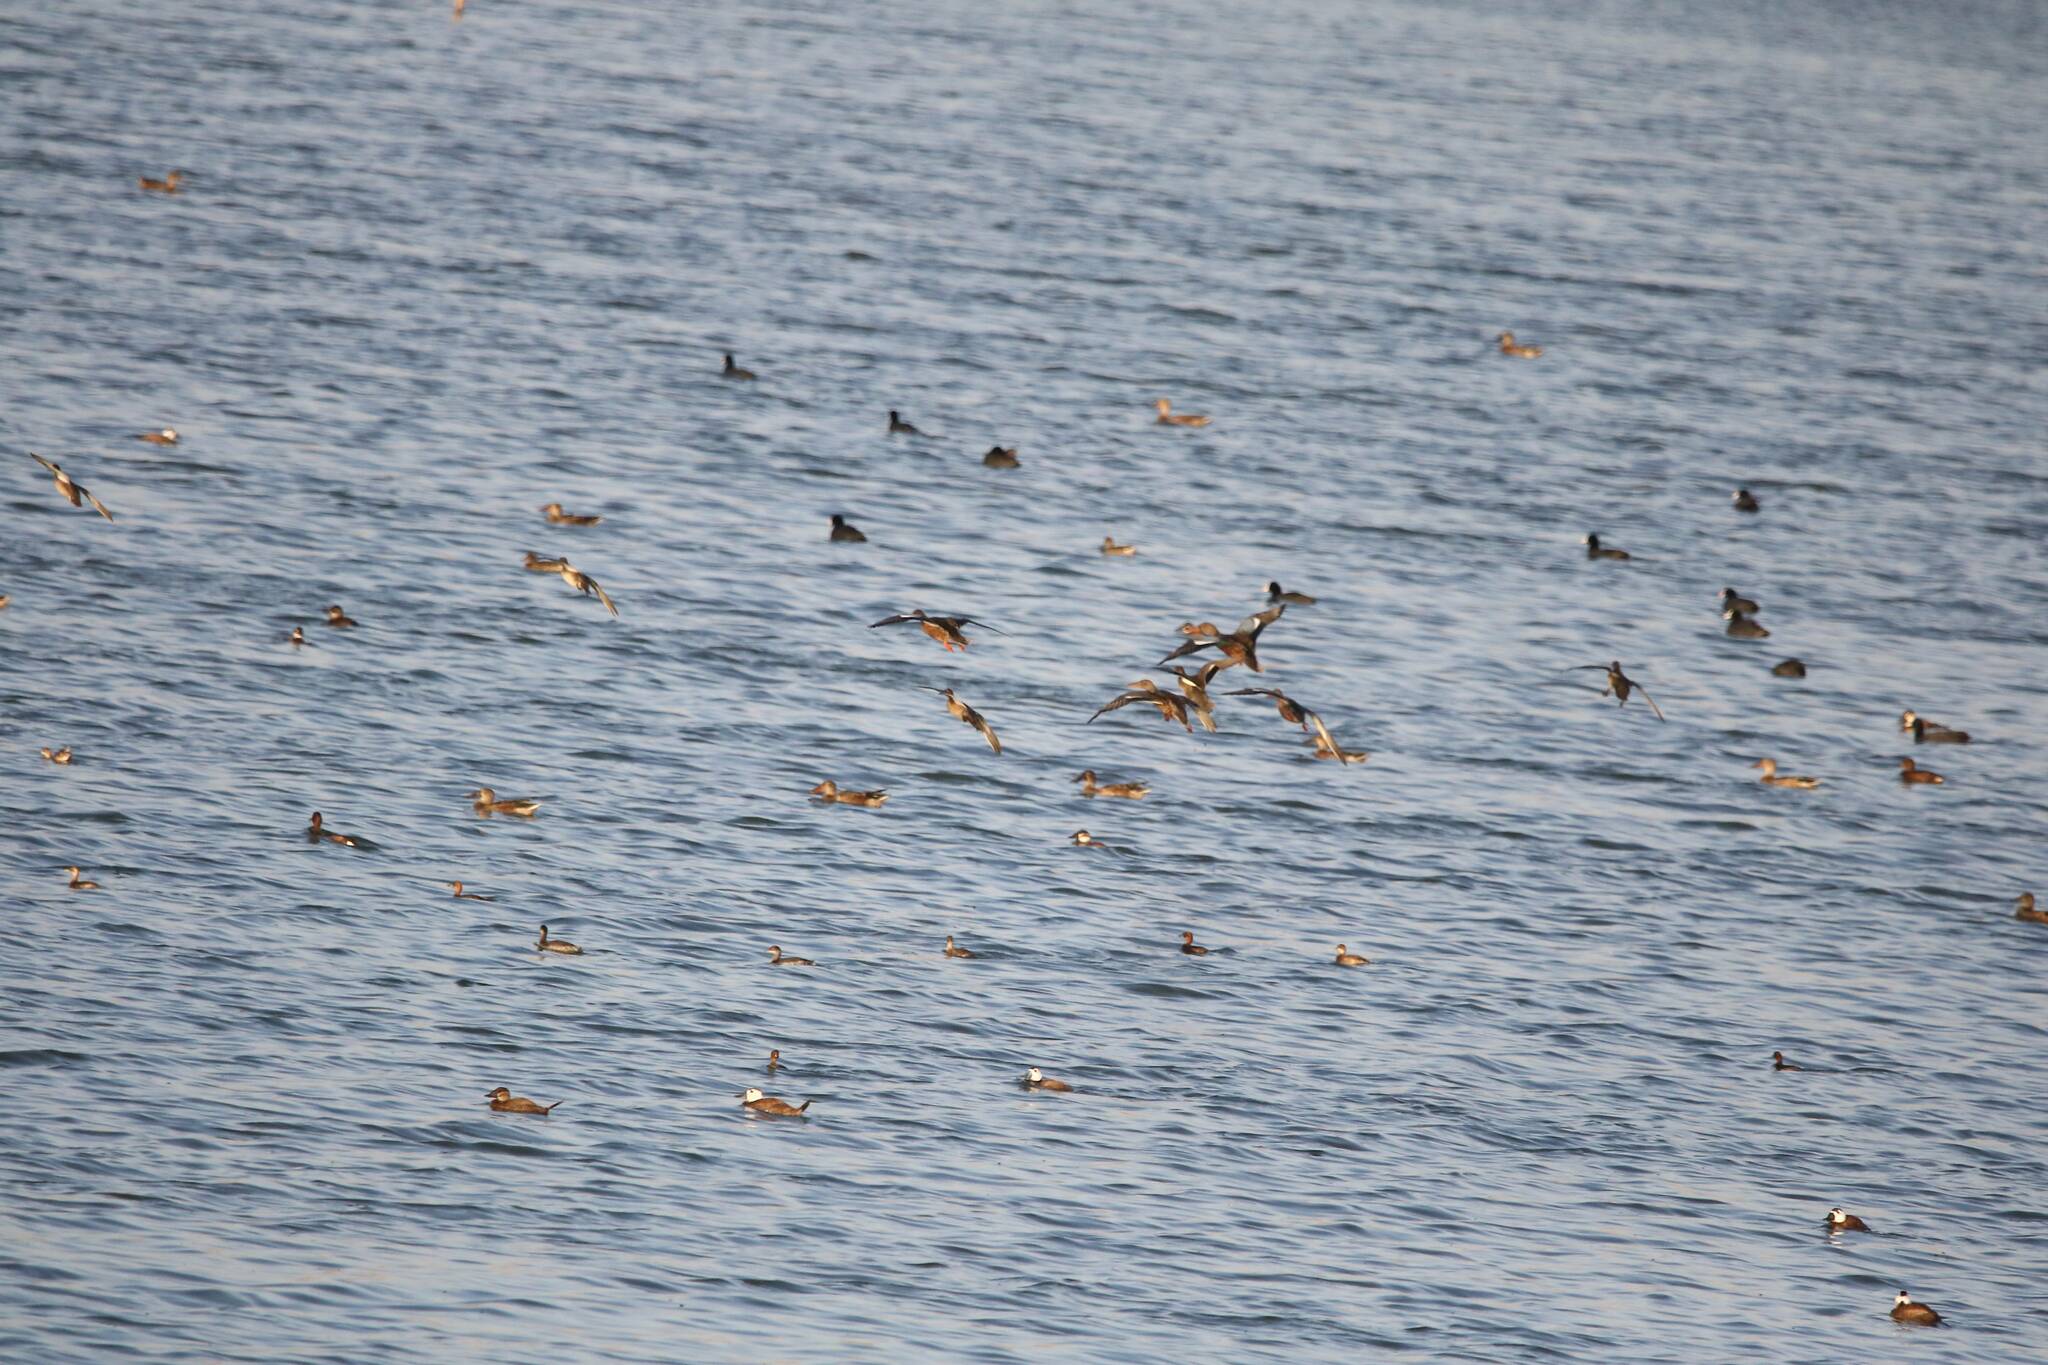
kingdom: Animalia
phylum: Chordata
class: Aves
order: Anseriformes
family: Anatidae
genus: Oxyura
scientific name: Oxyura leucocephala
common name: White-headed duck
